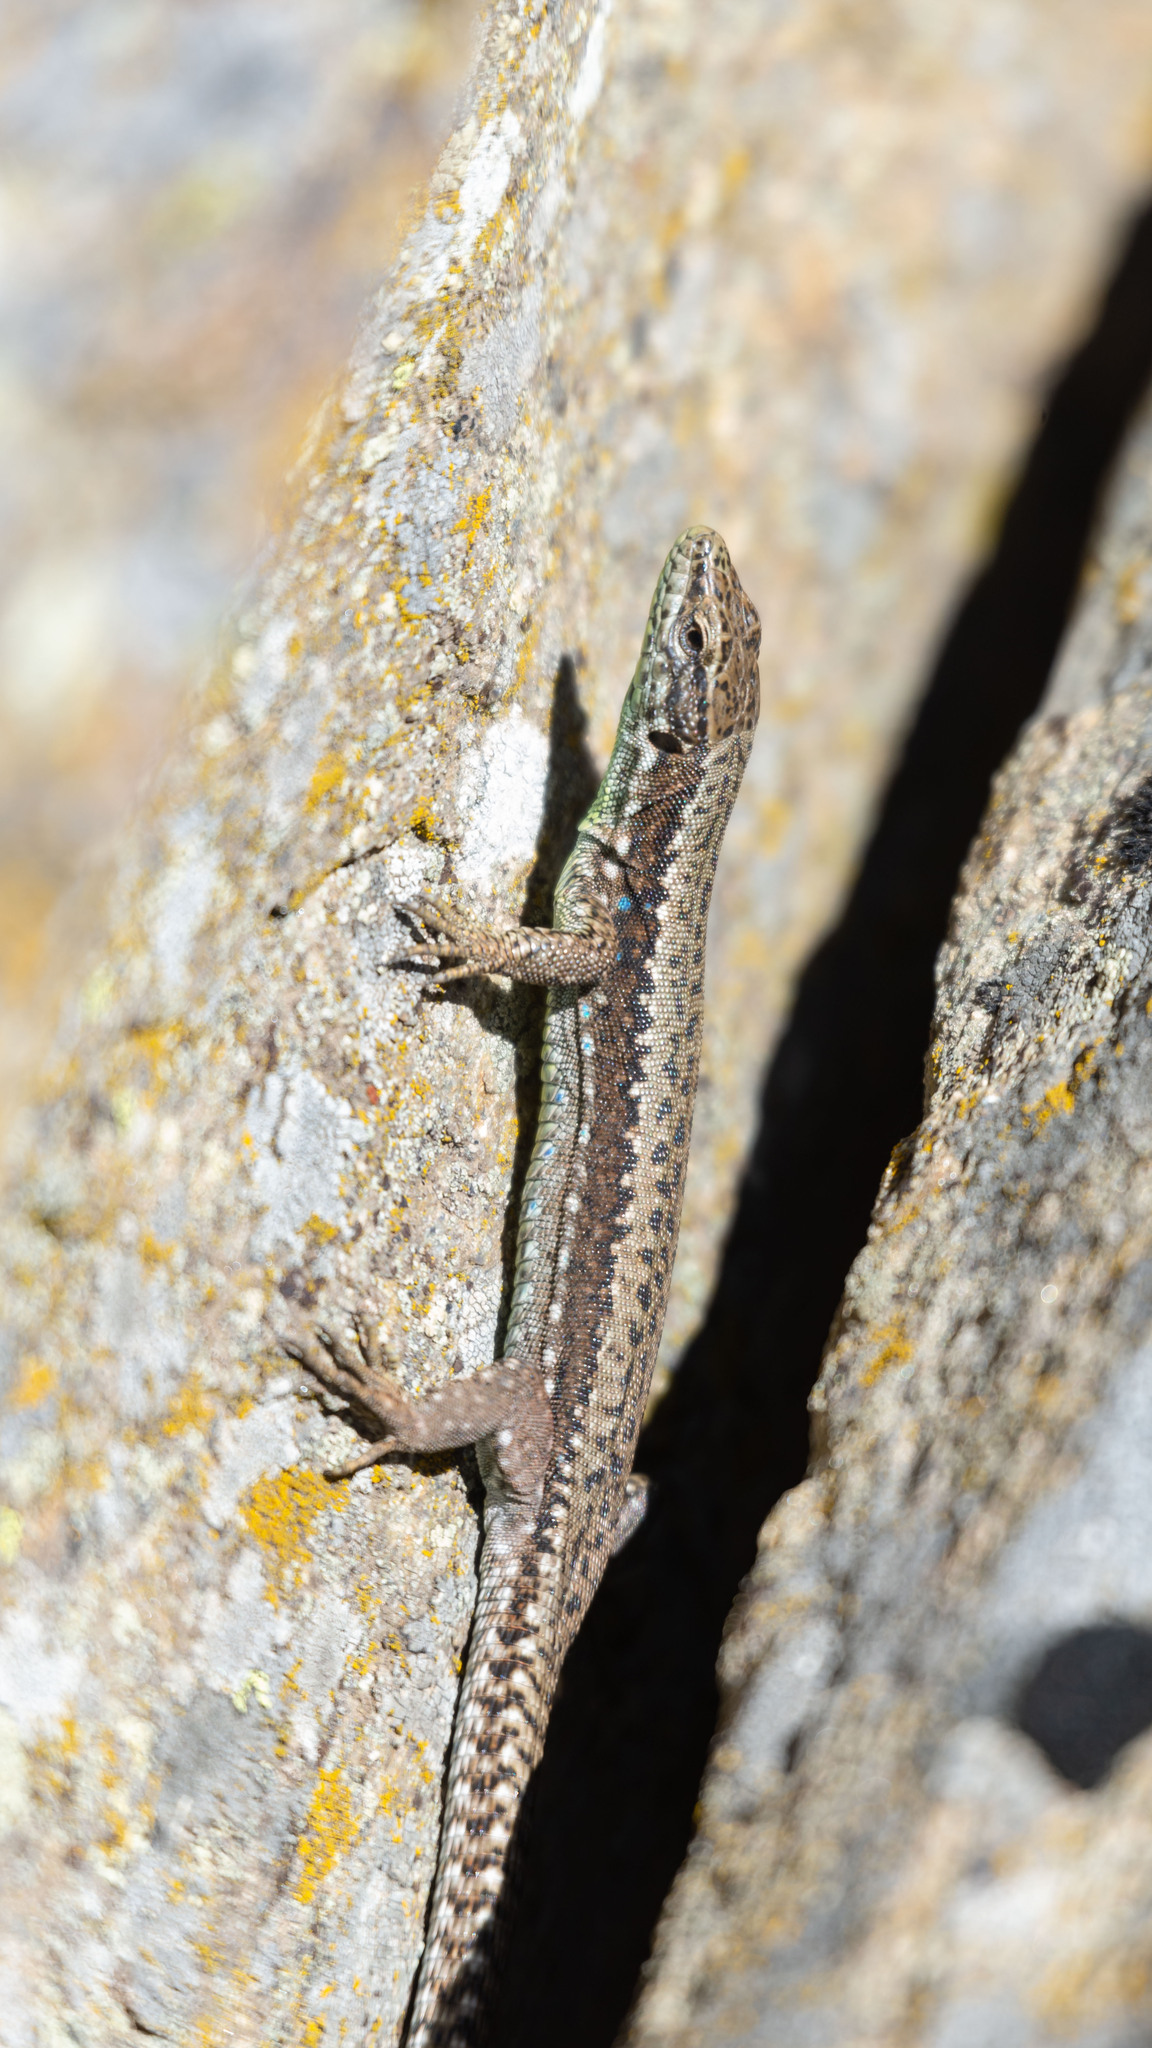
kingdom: Animalia
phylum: Chordata
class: Squamata
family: Lacertidae
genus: Iberolacerta
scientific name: Iberolacerta galani
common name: Galan's rock lizard
